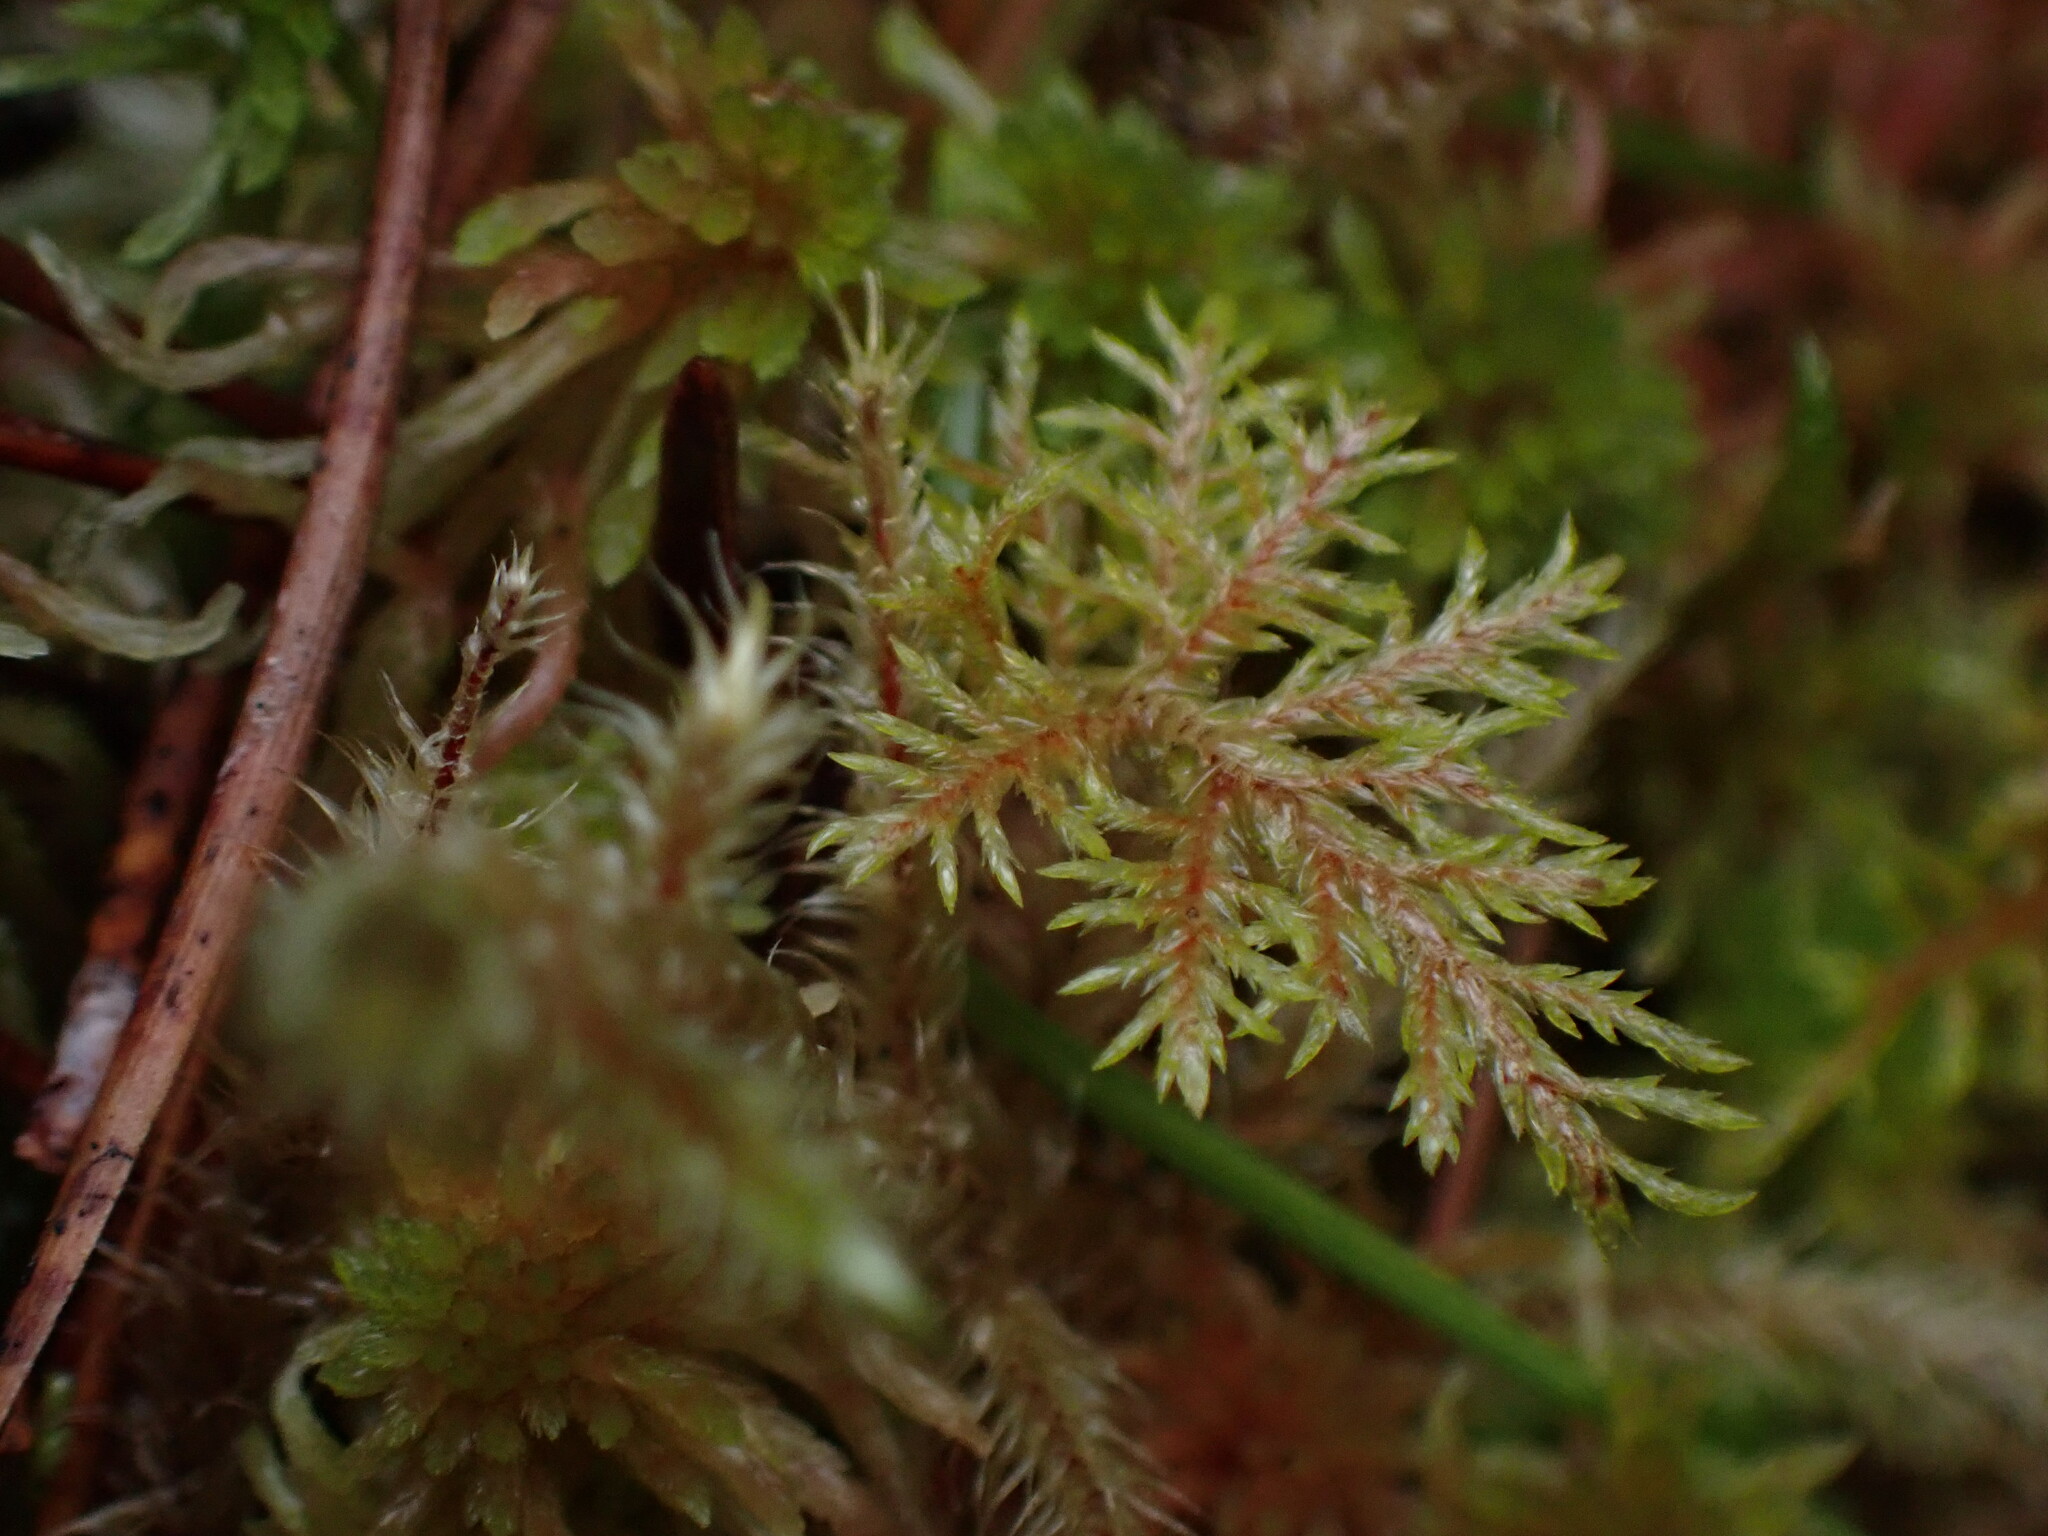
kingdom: Plantae
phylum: Bryophyta
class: Bryopsida
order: Hypnales
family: Hylocomiaceae
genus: Hylocomium
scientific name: Hylocomium splendens
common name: Stairstep moss
